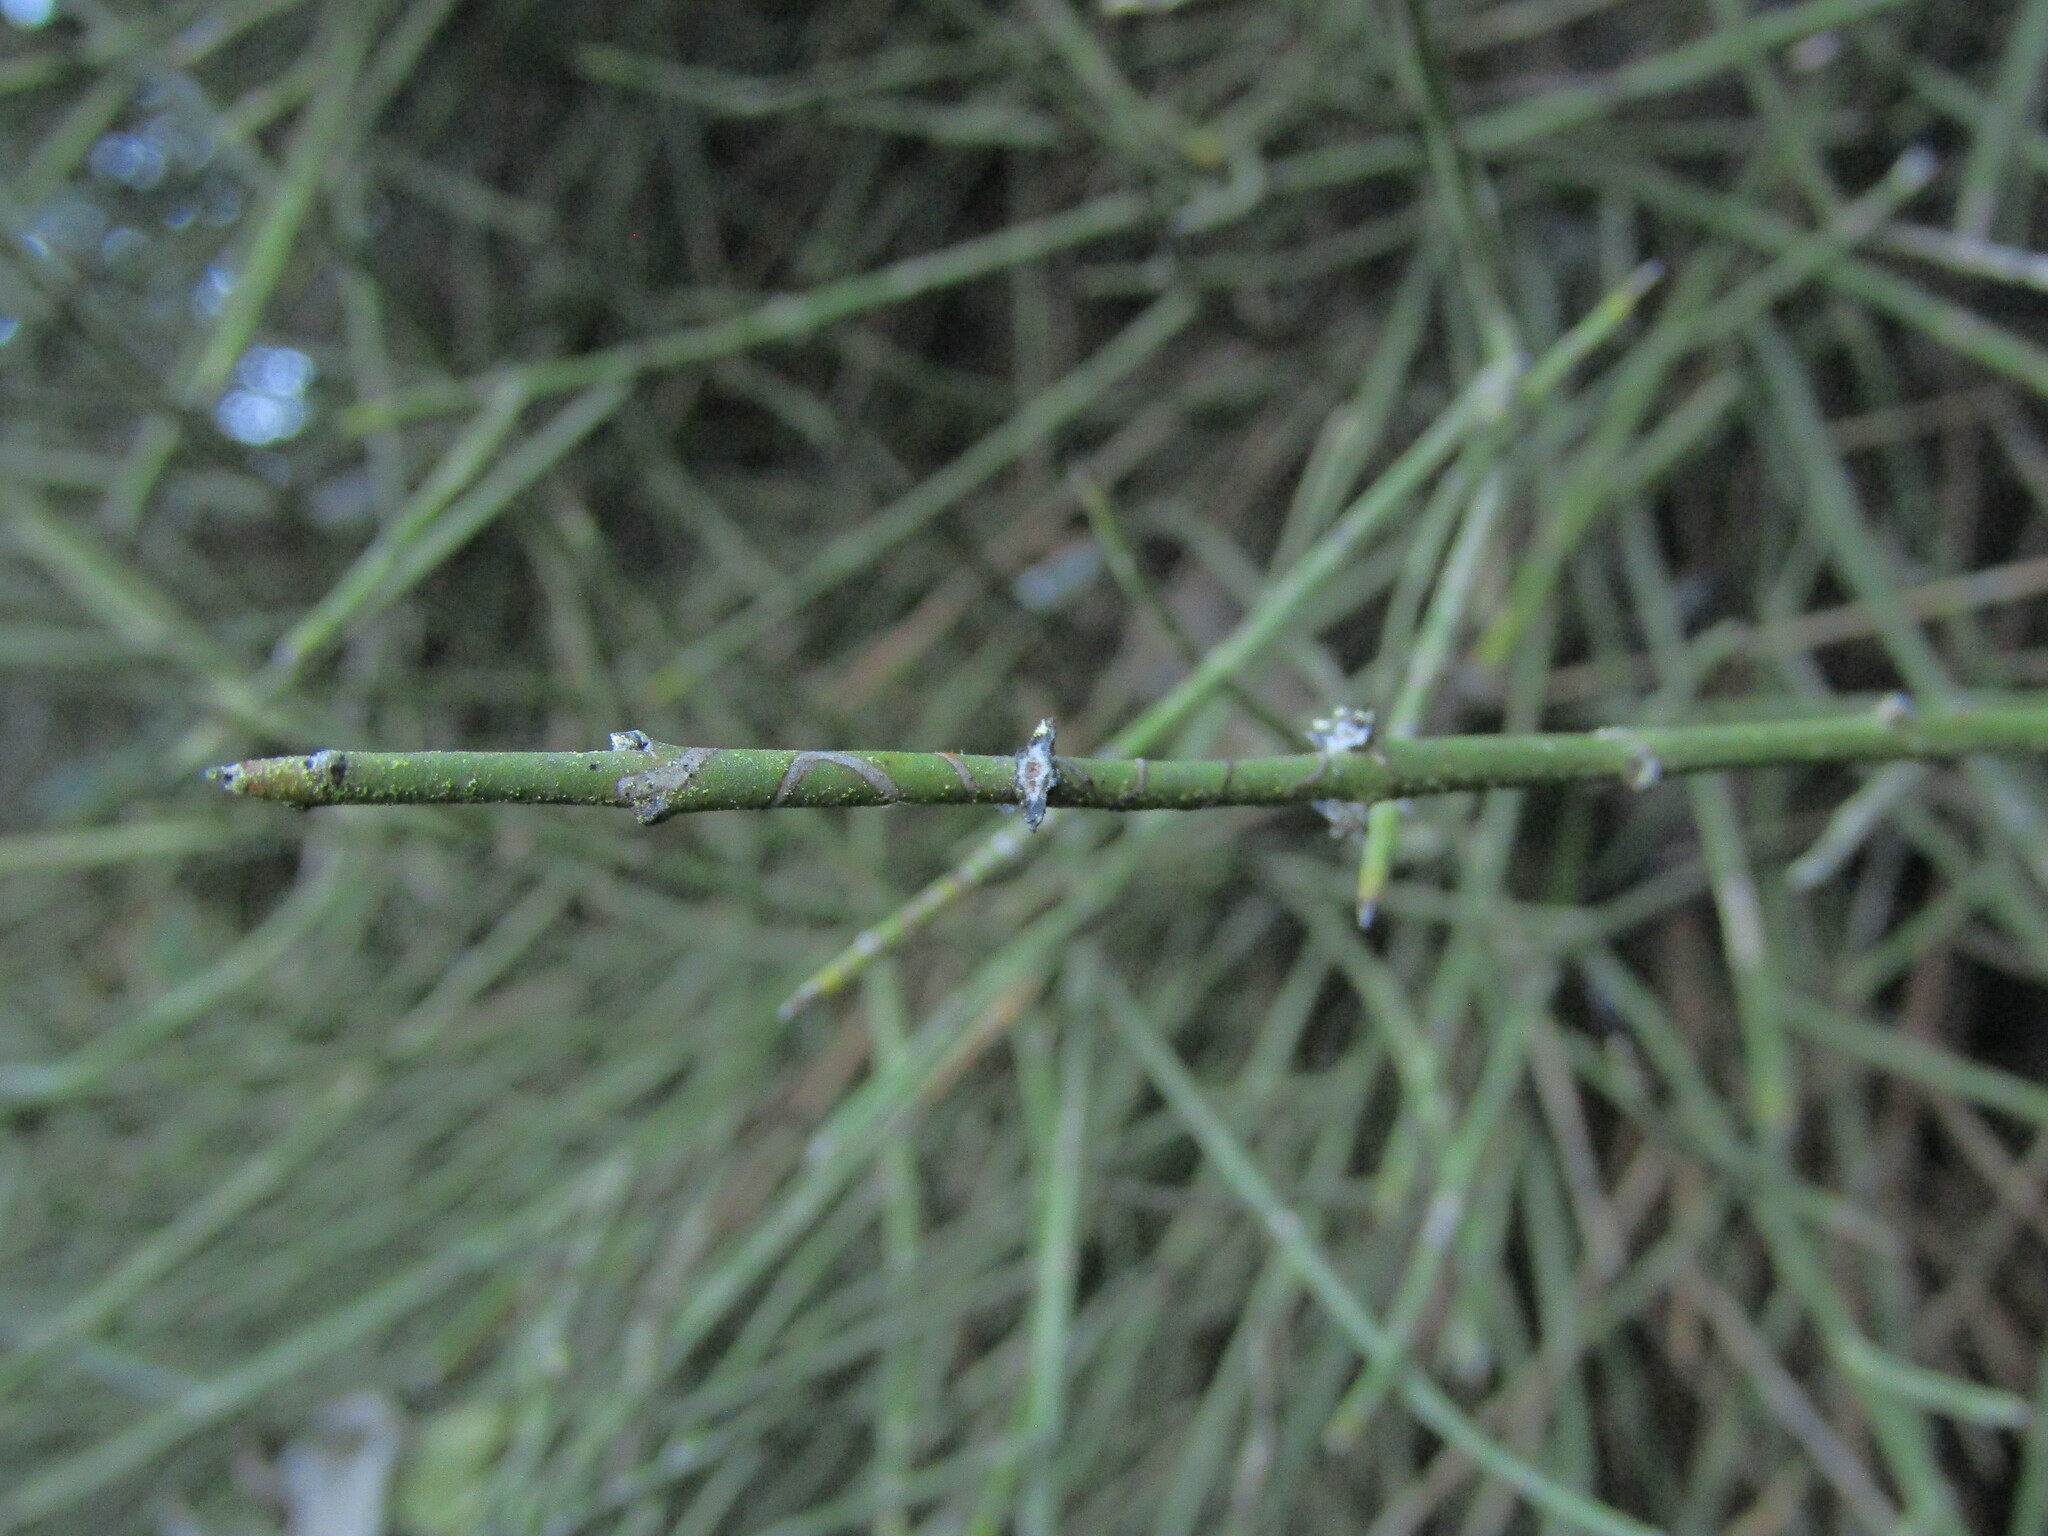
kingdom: Plantae
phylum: Tracheophyta
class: Magnoliopsida
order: Rosales
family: Rhamnaceae
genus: Retanilla
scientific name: Retanilla ephedra
